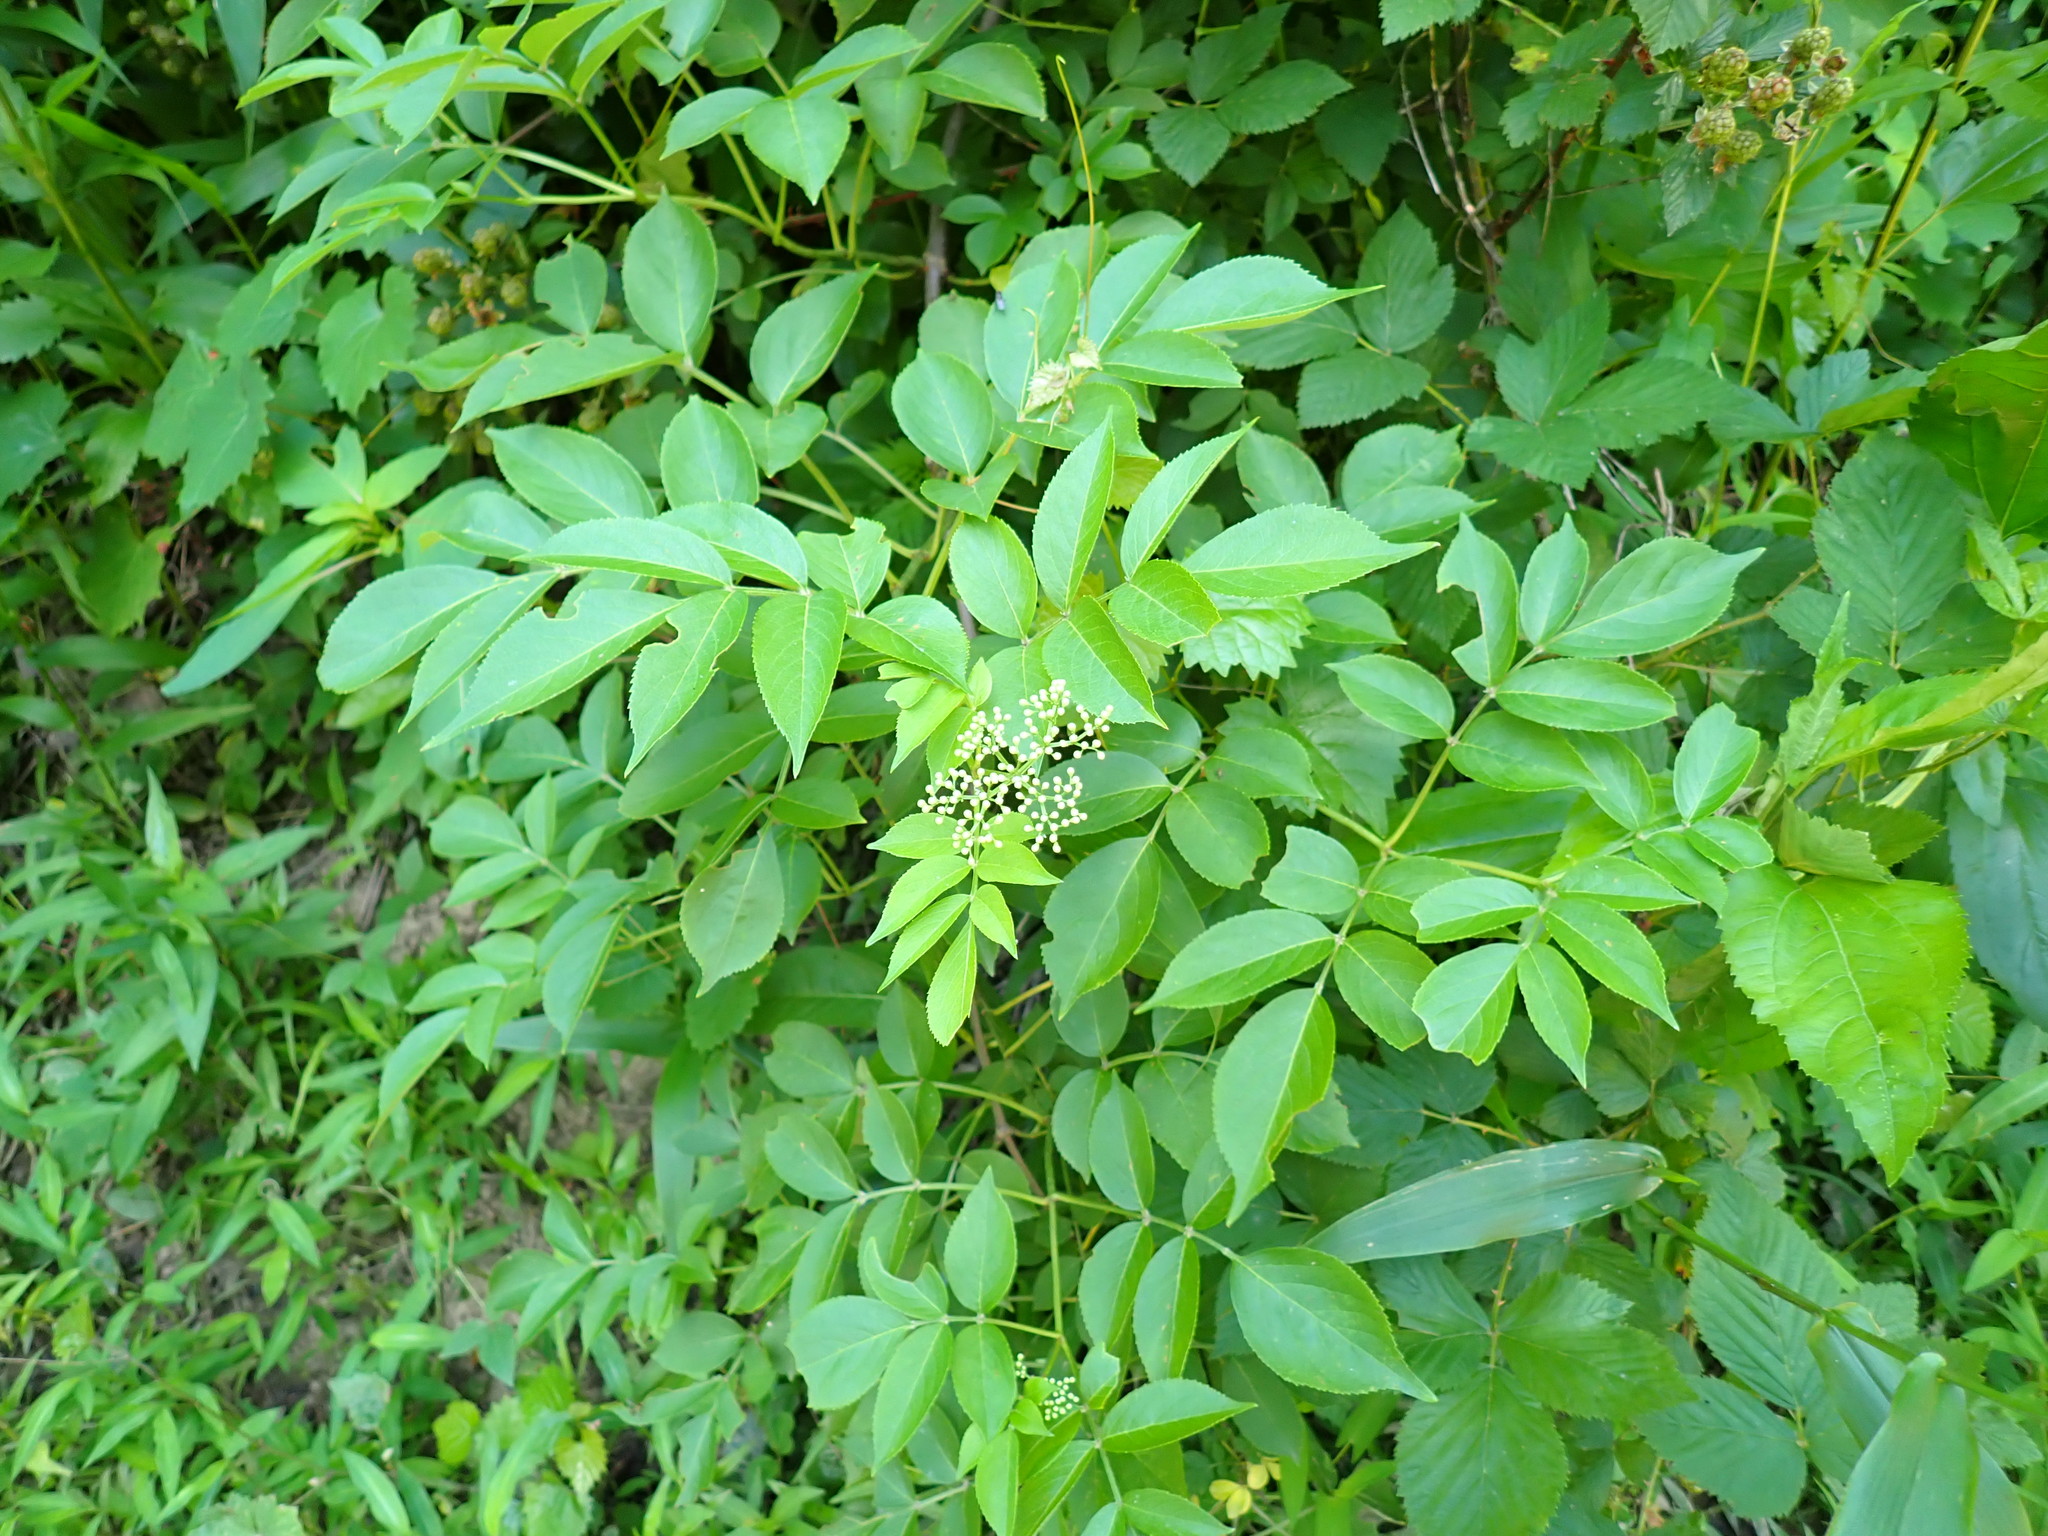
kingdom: Plantae
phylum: Tracheophyta
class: Magnoliopsida
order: Dipsacales
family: Viburnaceae
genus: Sambucus
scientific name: Sambucus canadensis
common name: American elder
